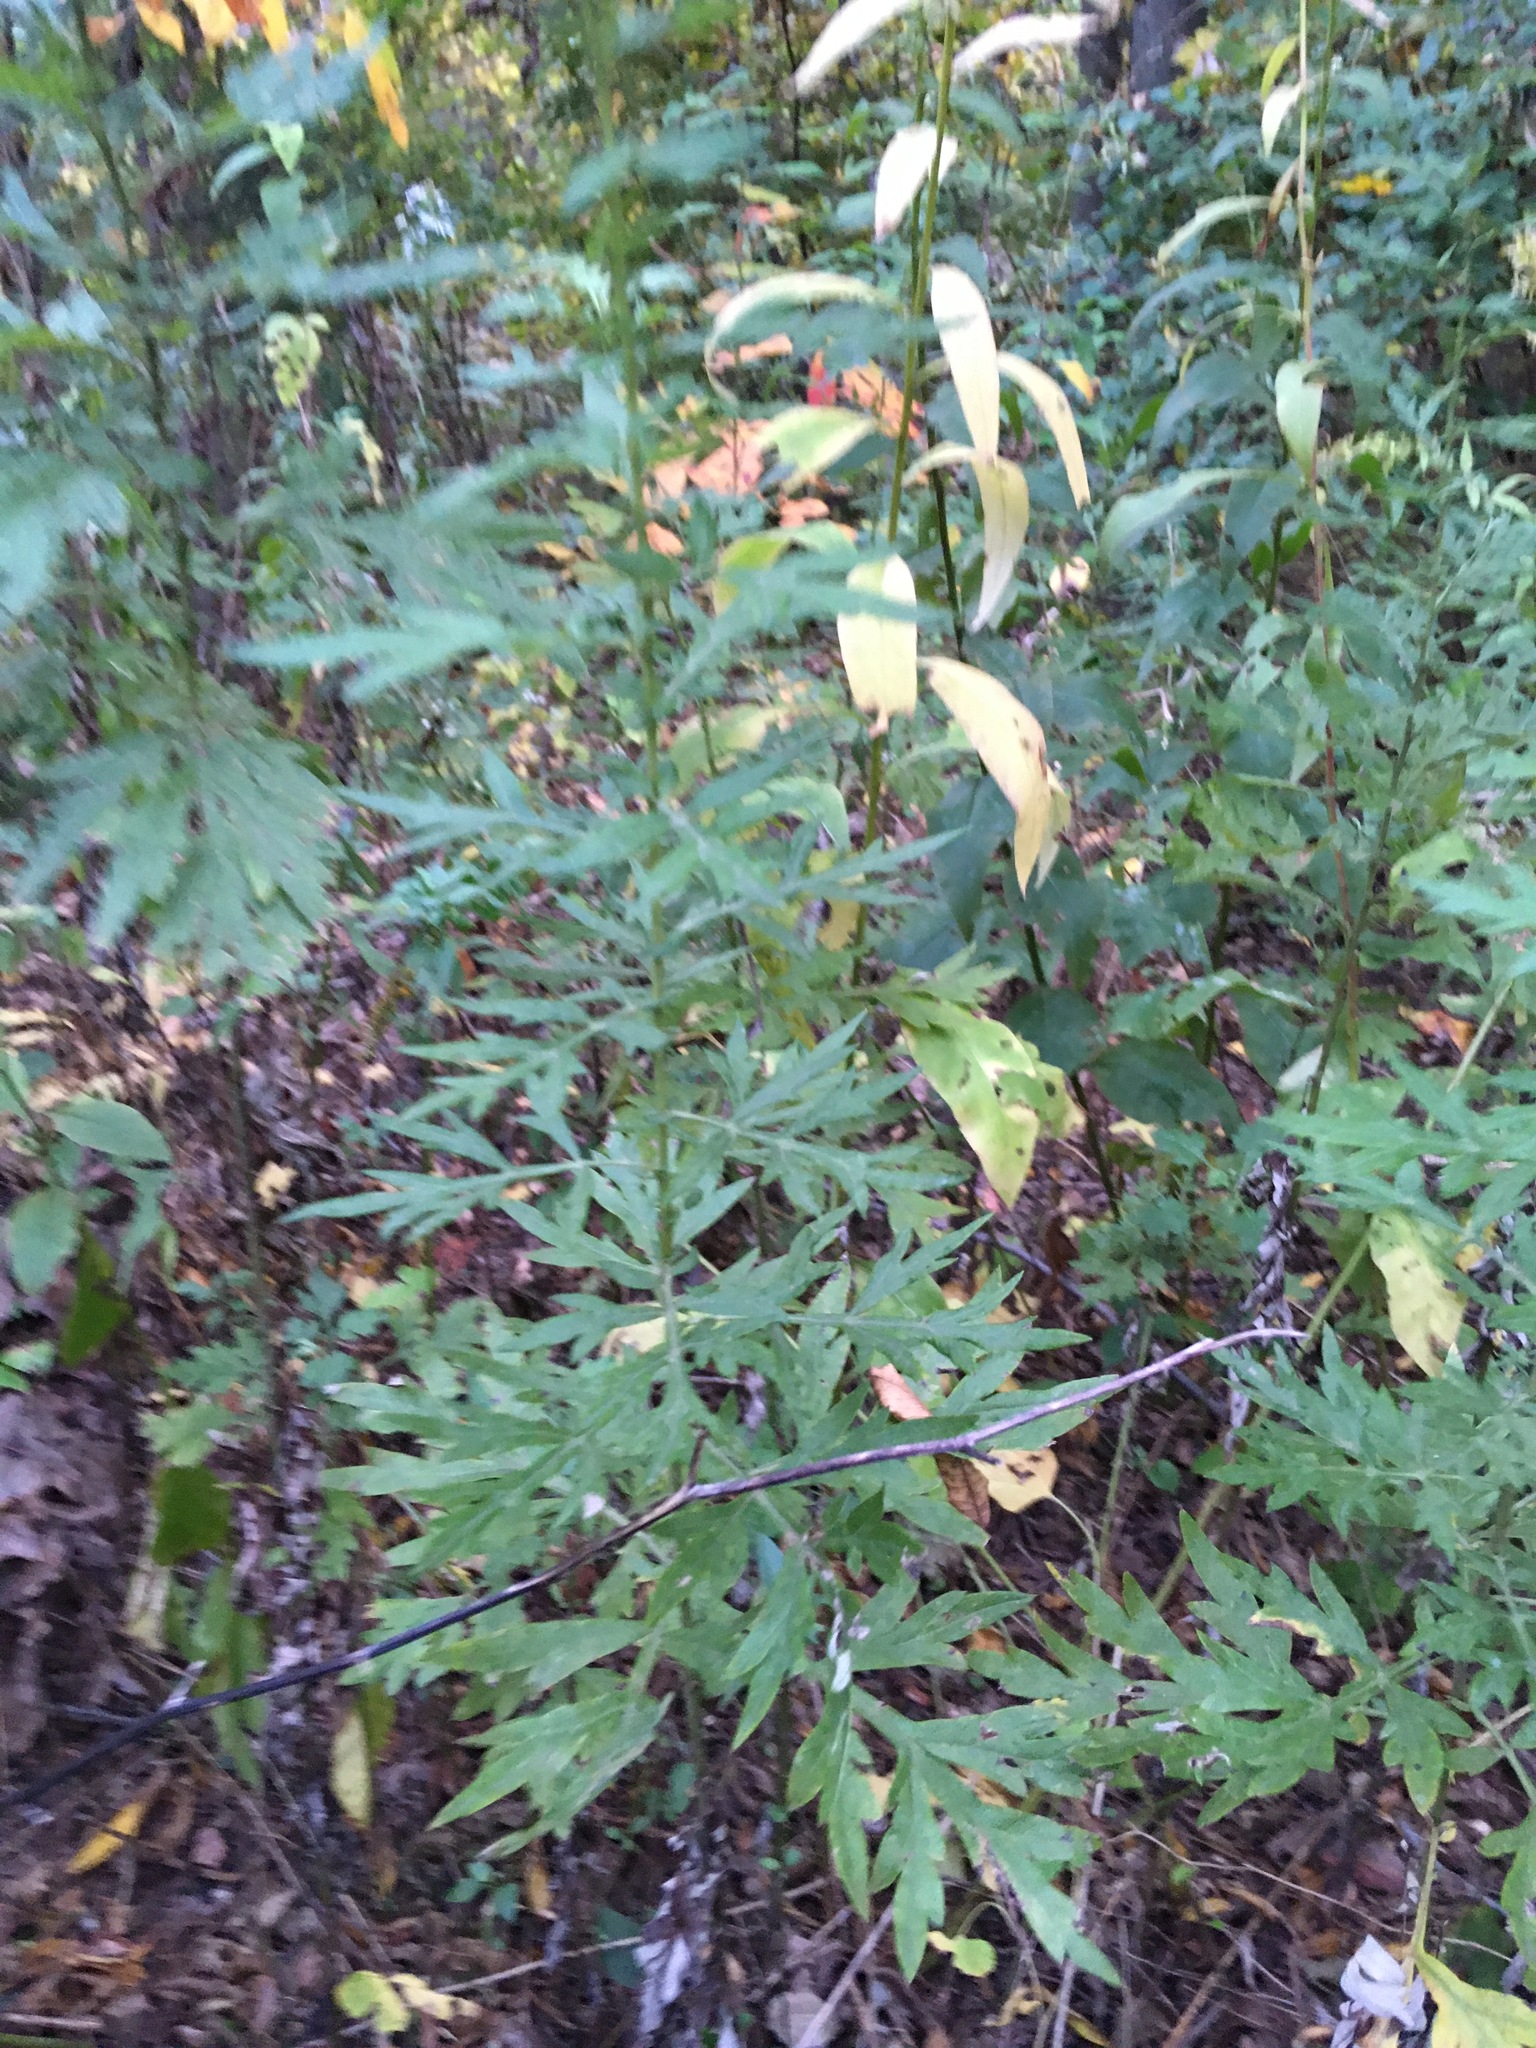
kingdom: Plantae
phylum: Tracheophyta
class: Magnoliopsida
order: Asterales
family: Asteraceae
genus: Artemisia
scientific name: Artemisia vulgaris
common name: Mugwort
